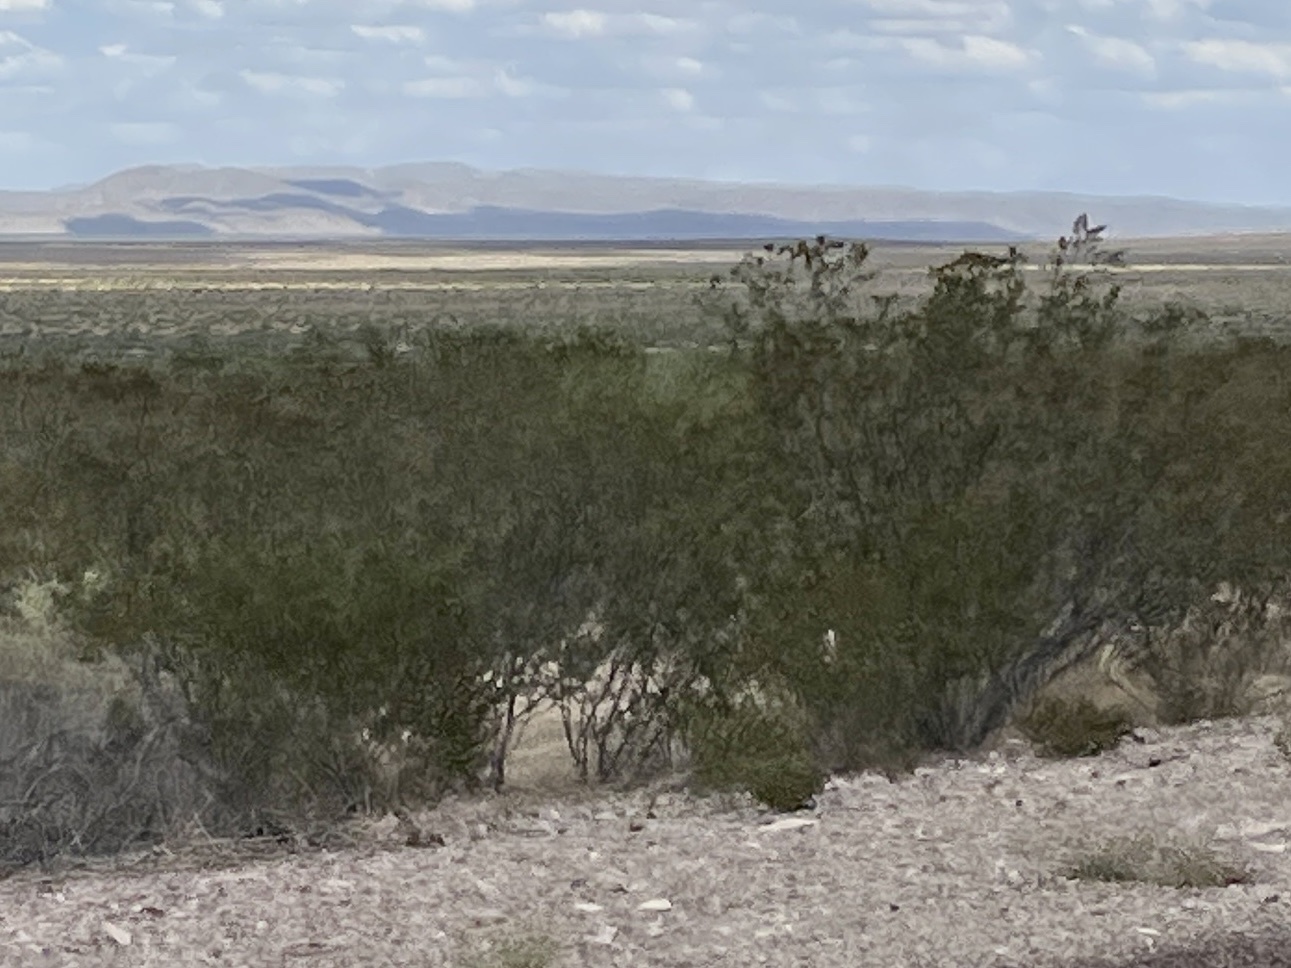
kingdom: Plantae
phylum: Tracheophyta
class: Magnoliopsida
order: Zygophyllales
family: Zygophyllaceae
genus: Larrea
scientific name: Larrea tridentata
